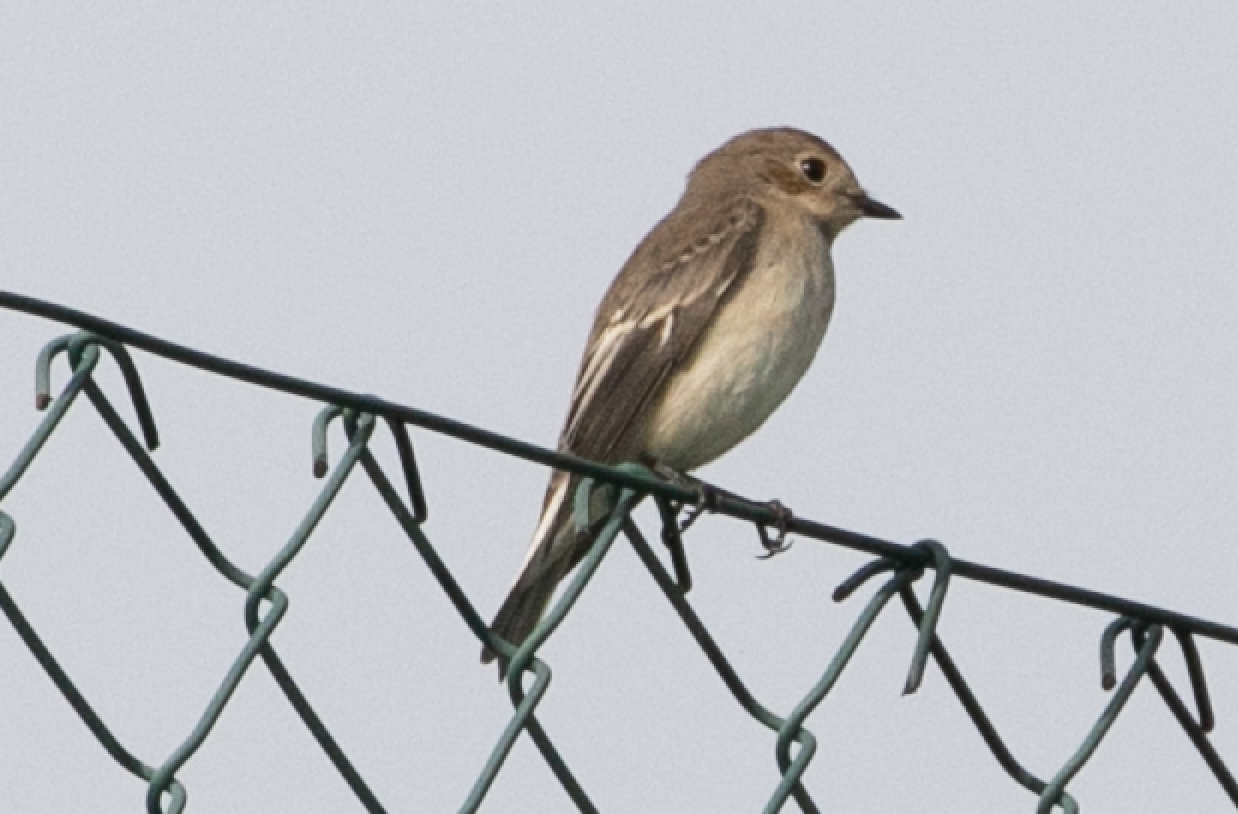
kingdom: Animalia
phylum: Chordata
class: Aves
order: Passeriformes
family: Muscicapidae
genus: Ficedula
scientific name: Ficedula hypoleuca
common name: European pied flycatcher
